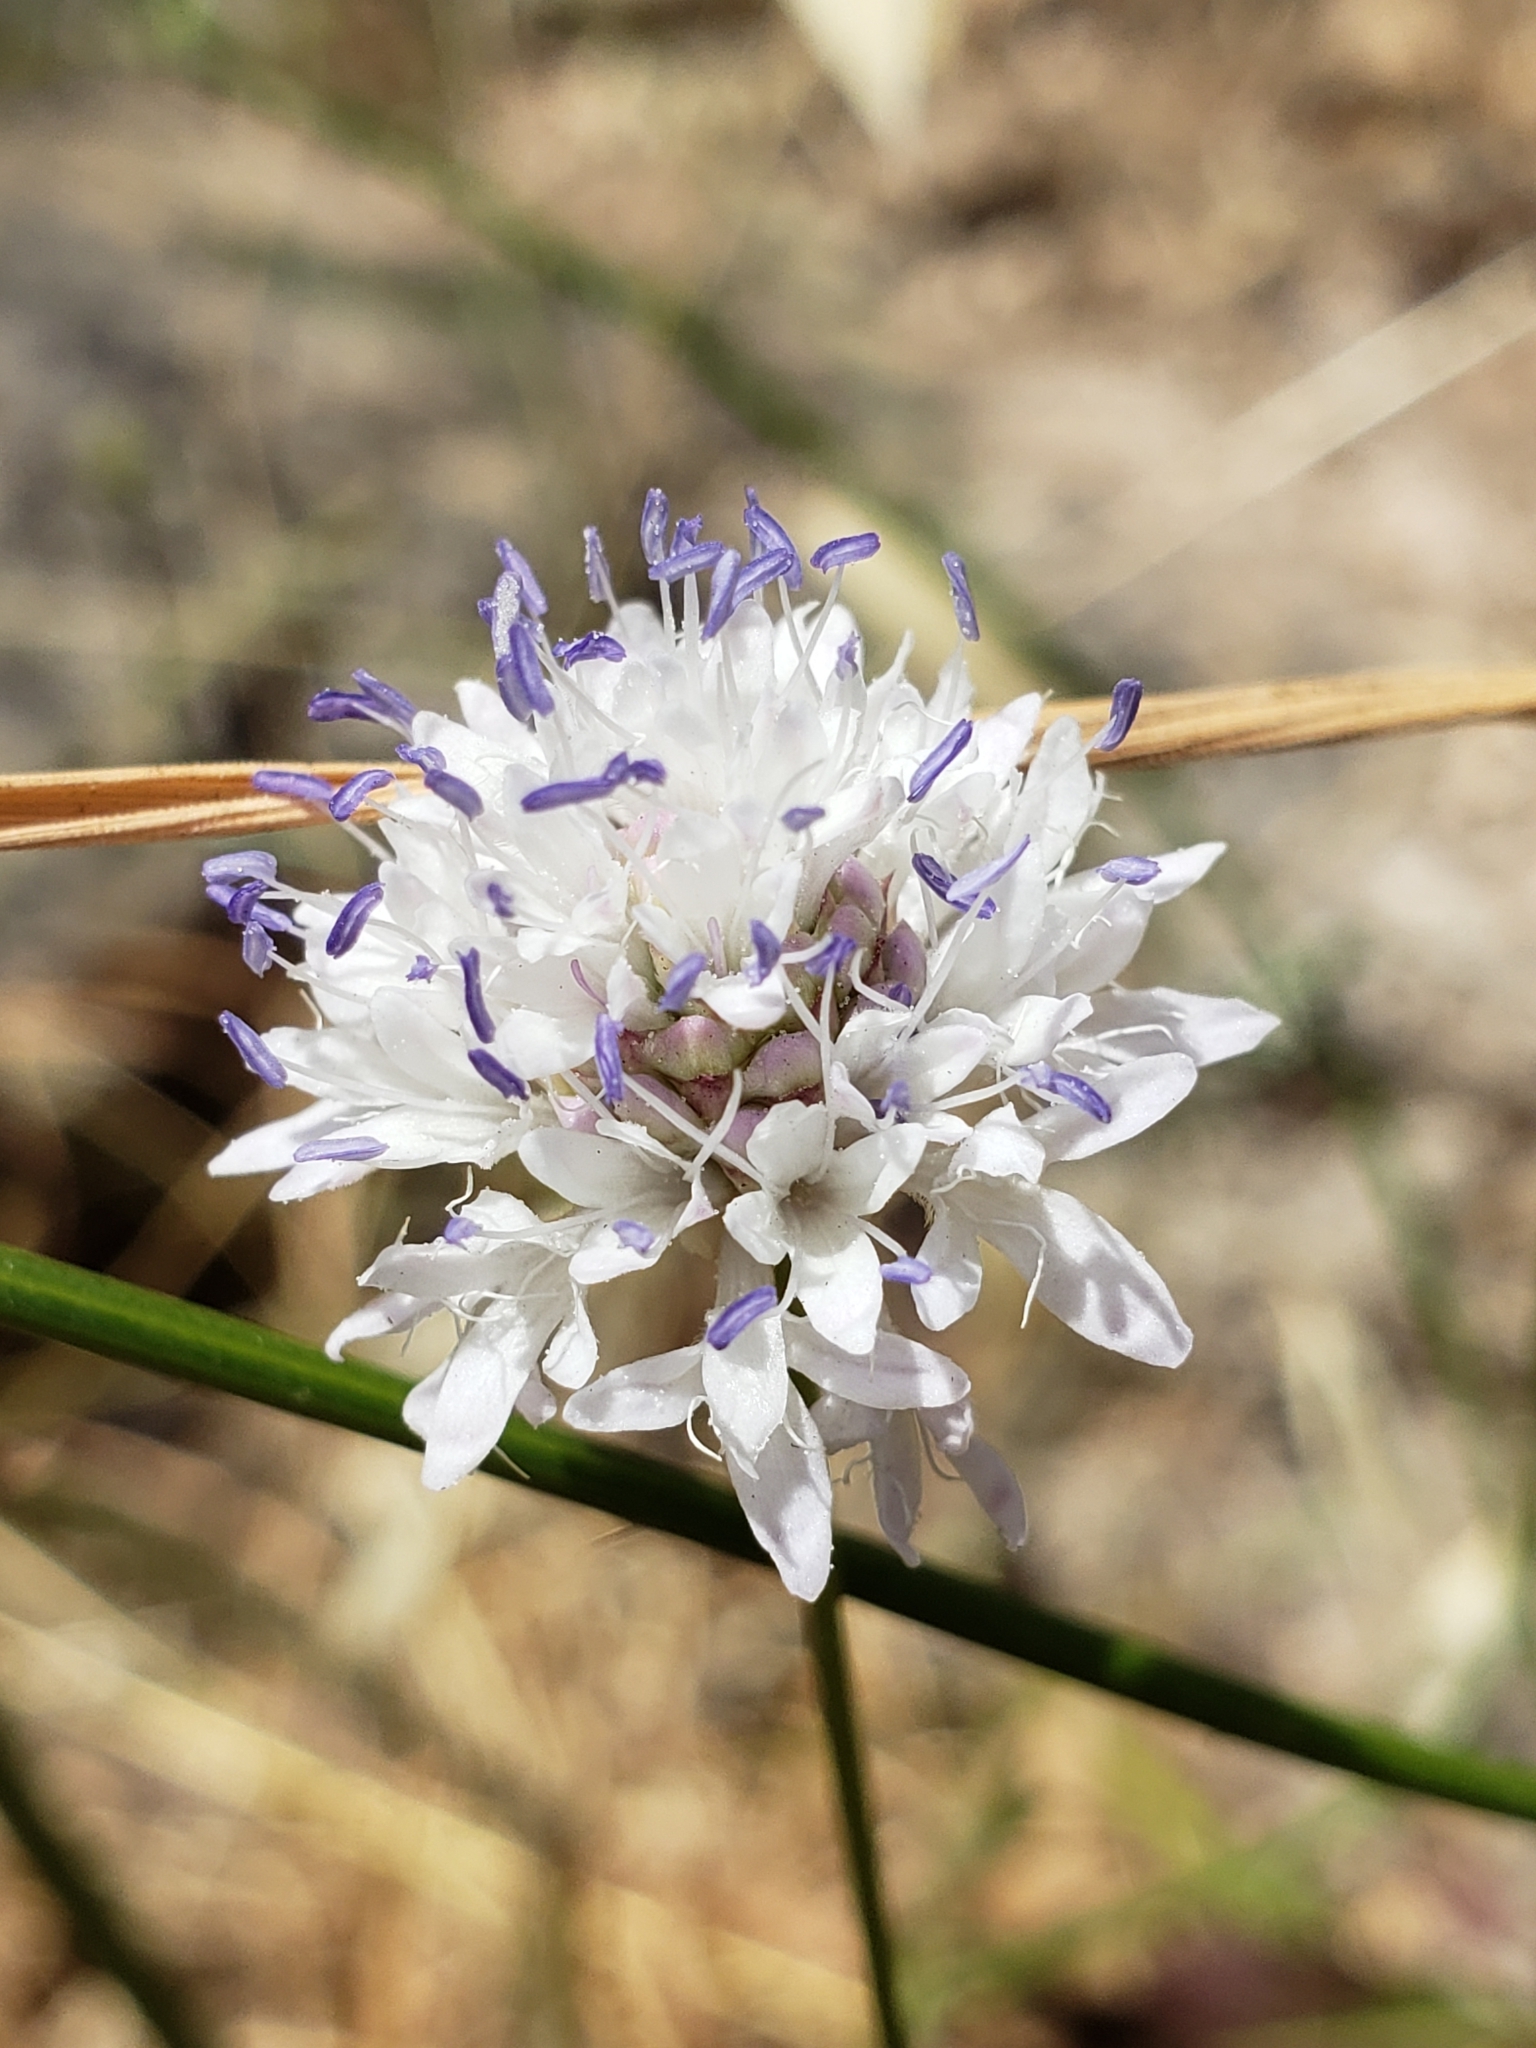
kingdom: Plantae
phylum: Tracheophyta
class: Magnoliopsida
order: Dipsacales
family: Caprifoliaceae
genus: Cephalaria
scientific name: Cephalaria joppensis
